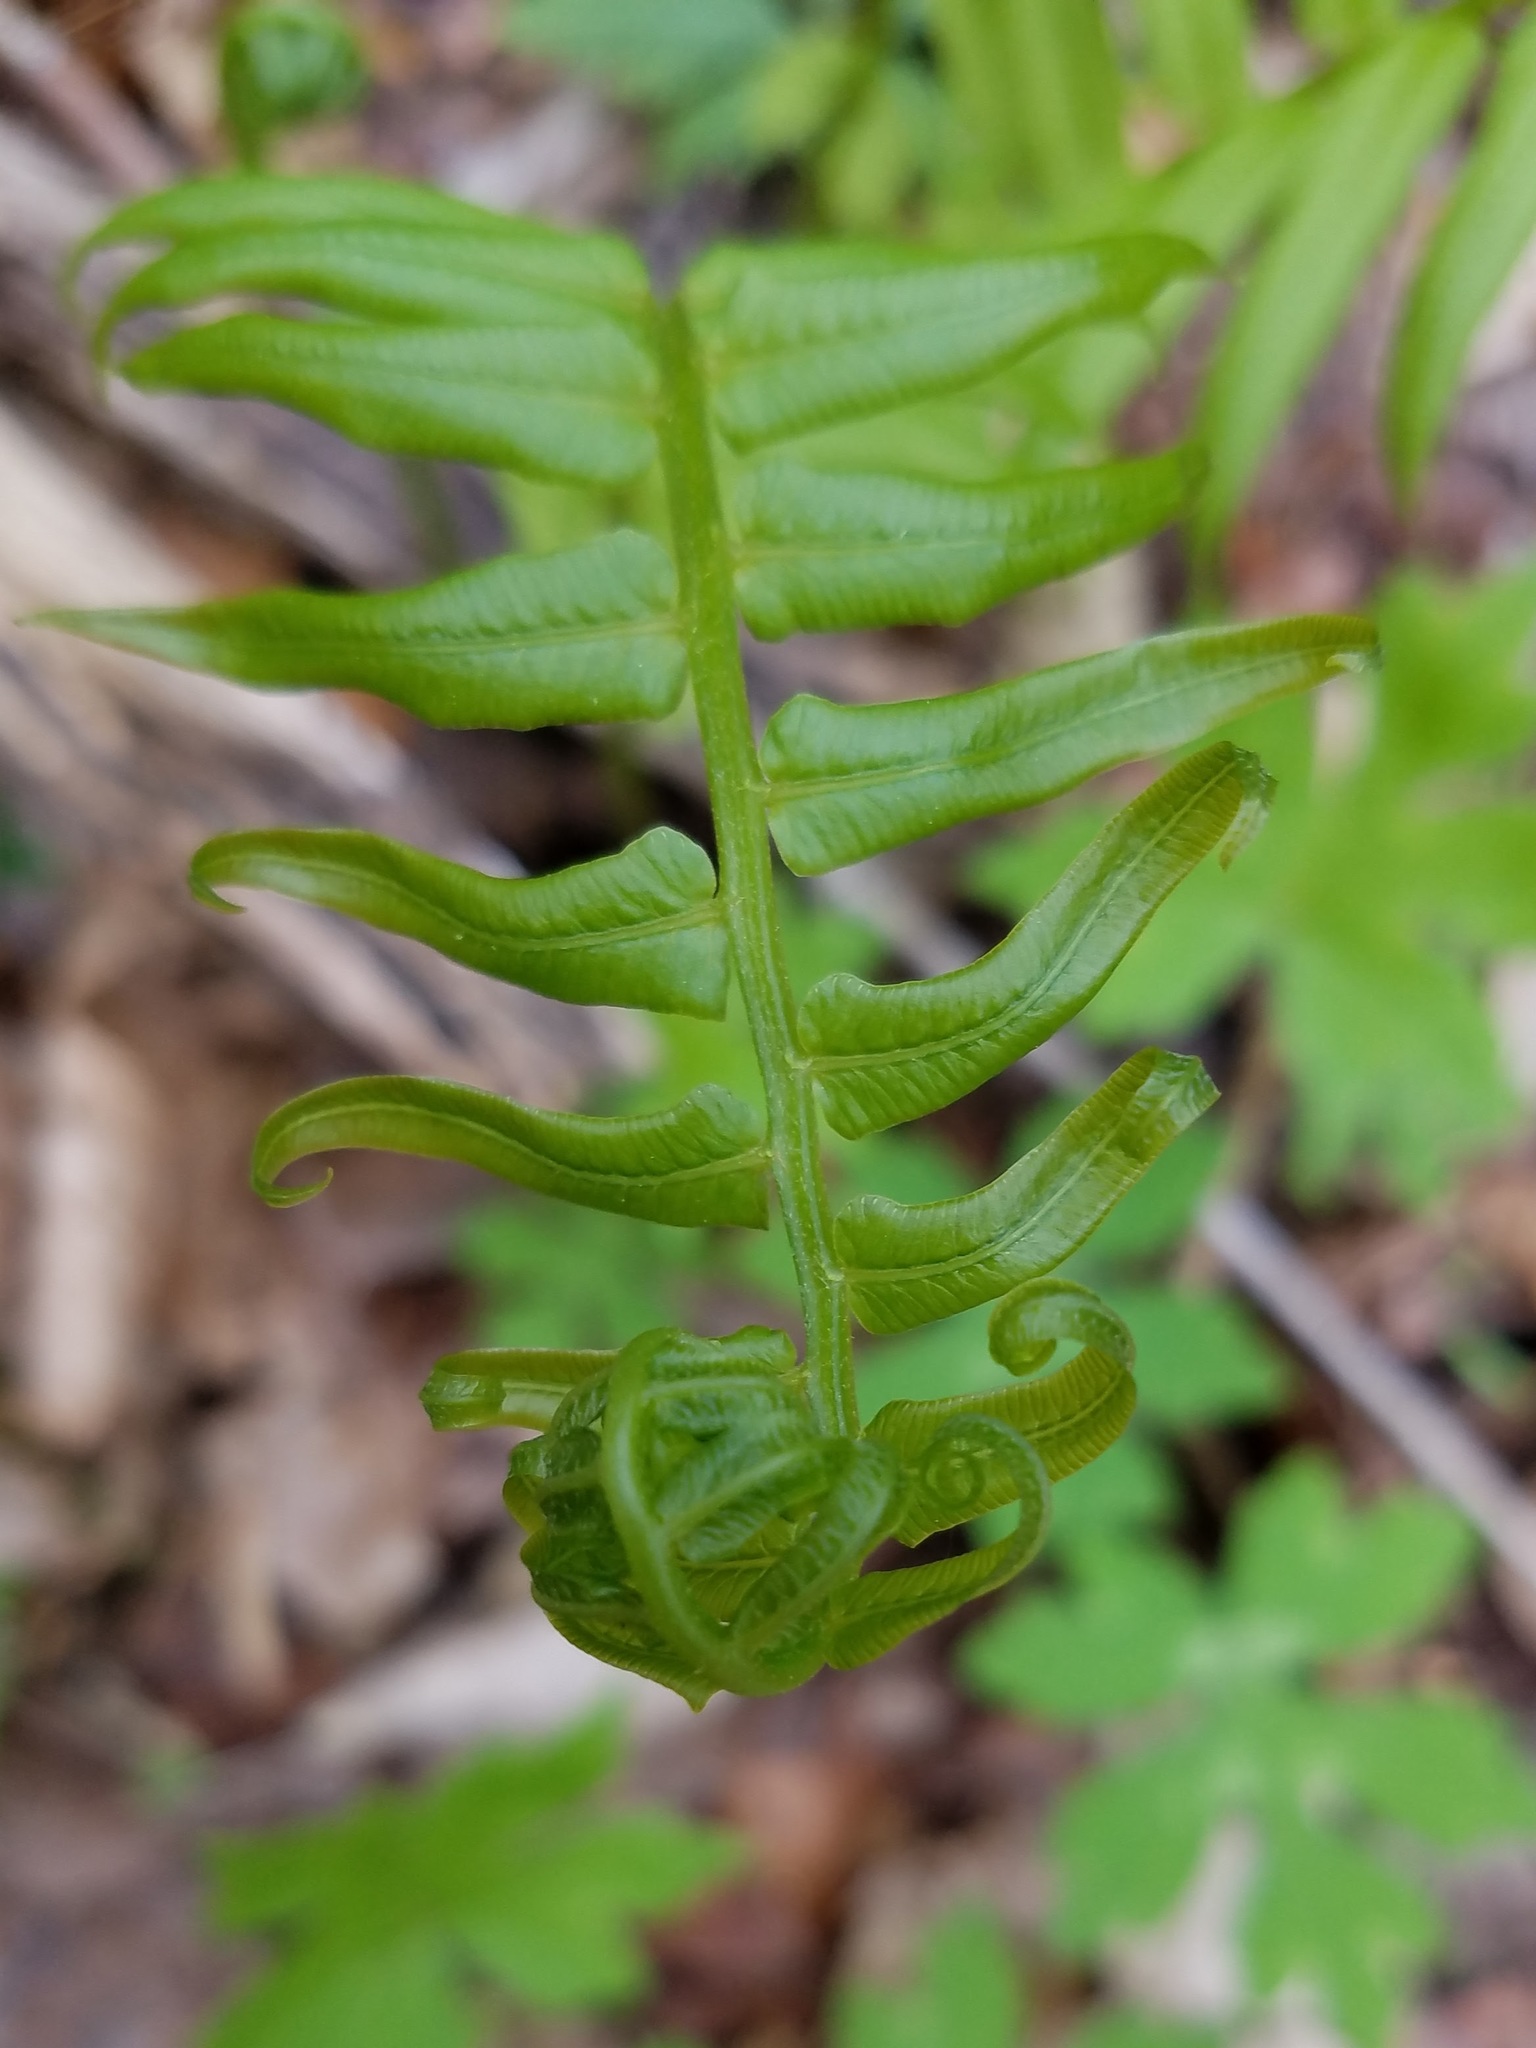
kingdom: Plantae
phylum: Tracheophyta
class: Polypodiopsida
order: Polypodiales
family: Diplaziopsidaceae
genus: Homalosorus
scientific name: Homalosorus pycnocarpos
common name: Glade fern
